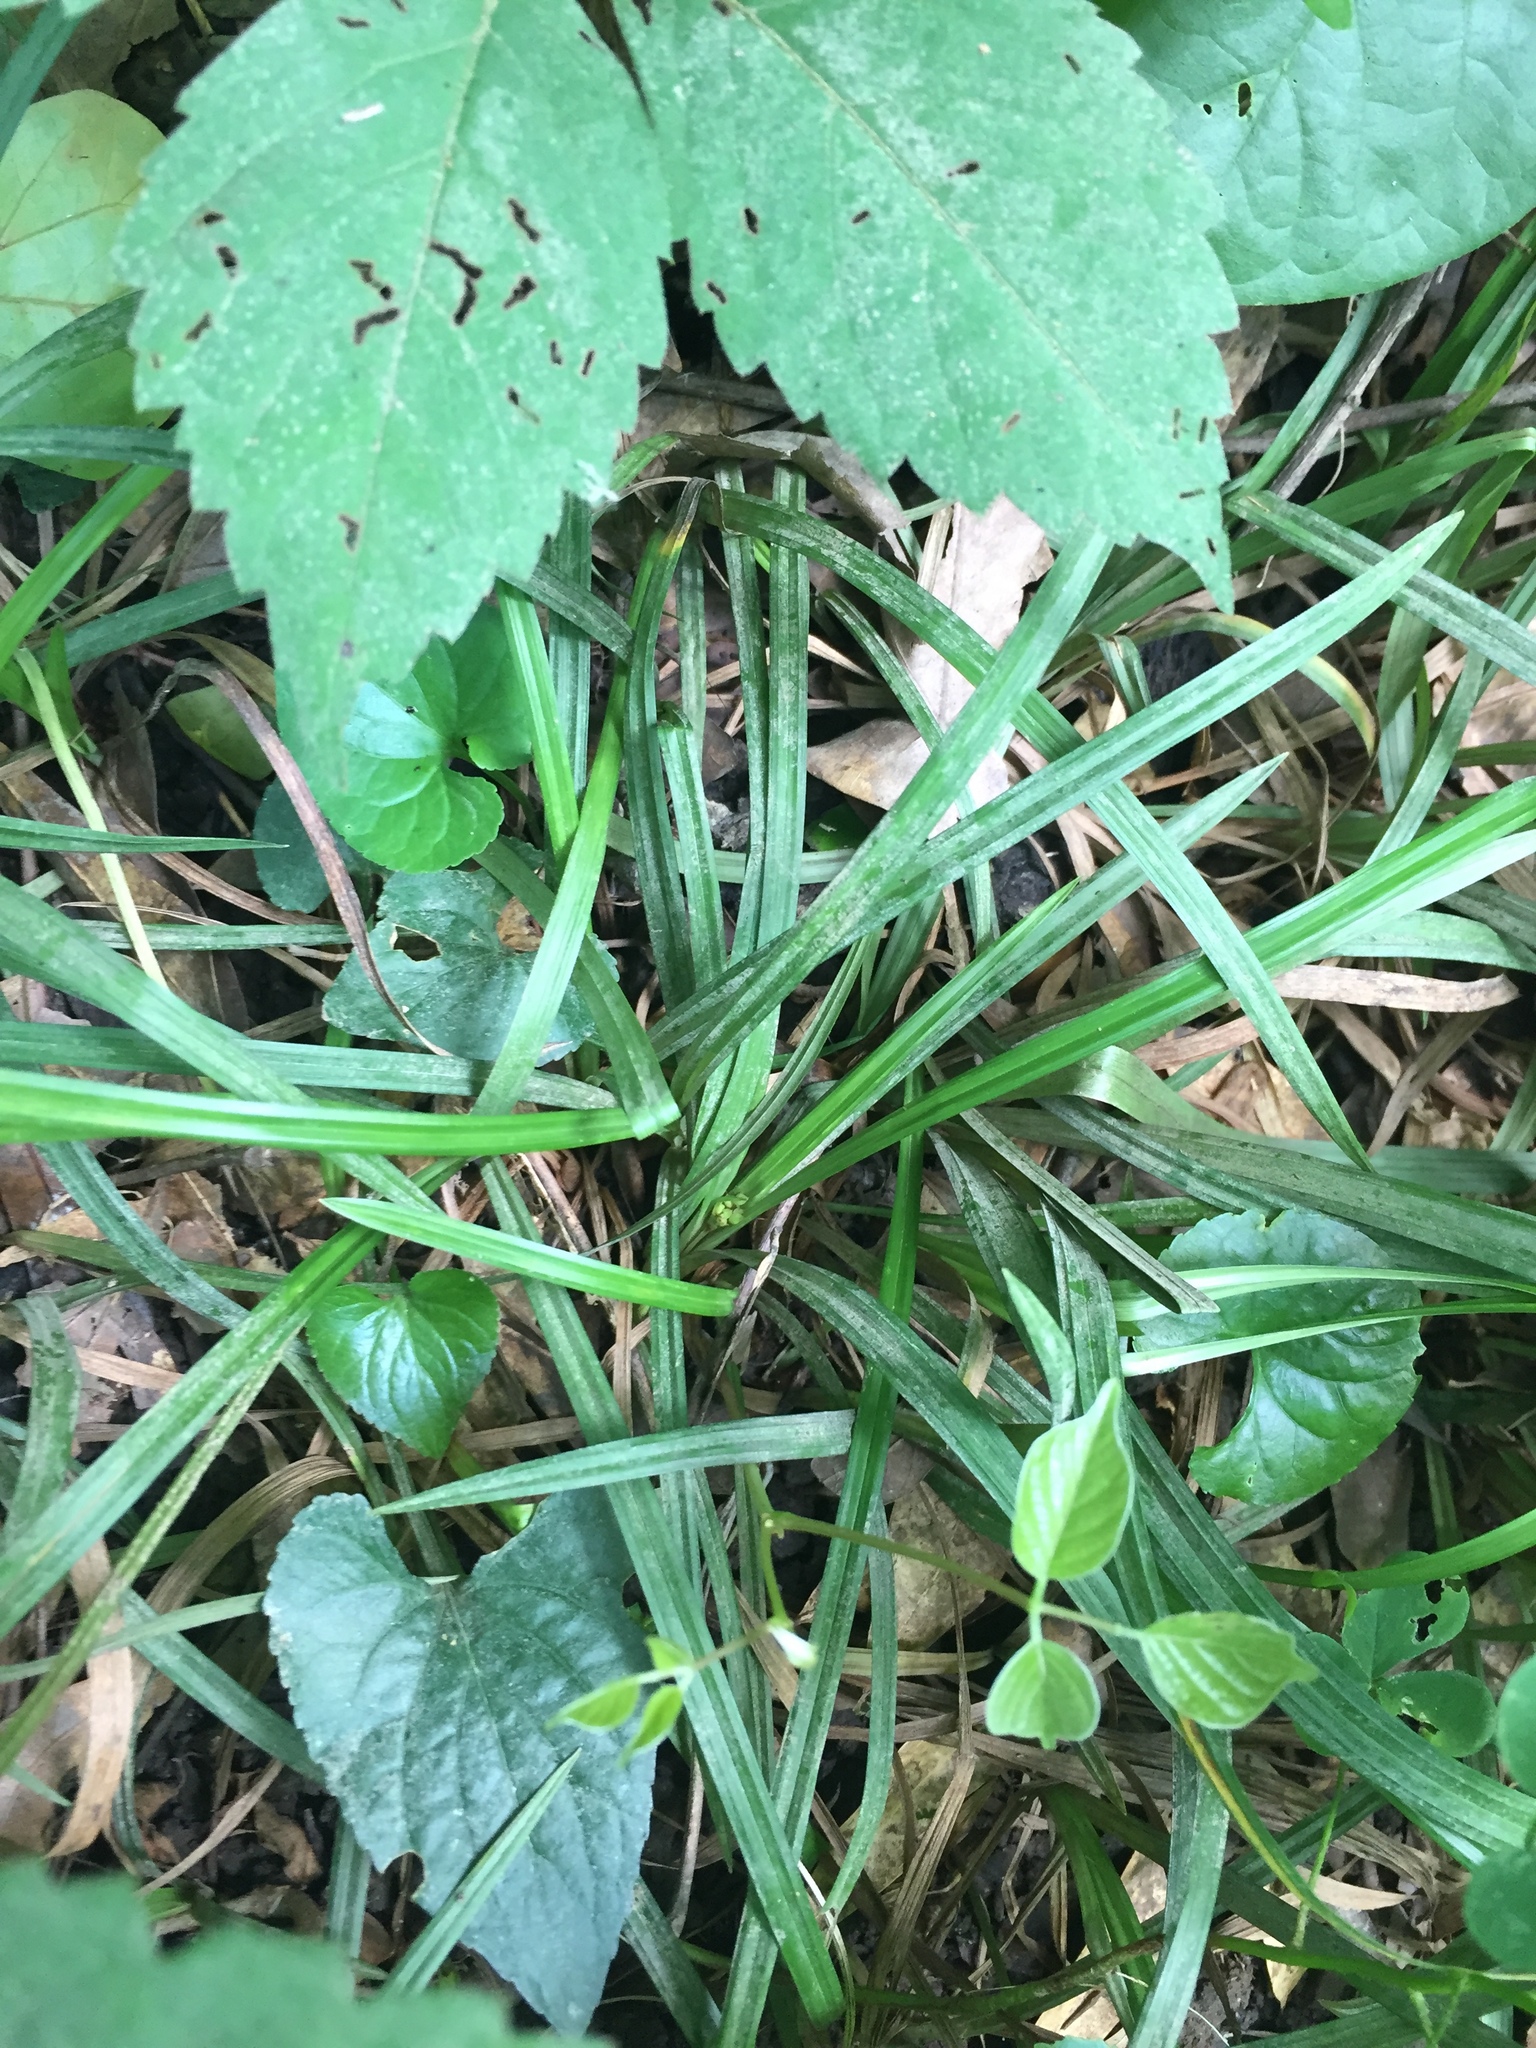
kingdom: Plantae
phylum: Tracheophyta
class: Liliopsida
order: Poales
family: Cyperaceae
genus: Carex
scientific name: Carex abscondita
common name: Thicket sedge
